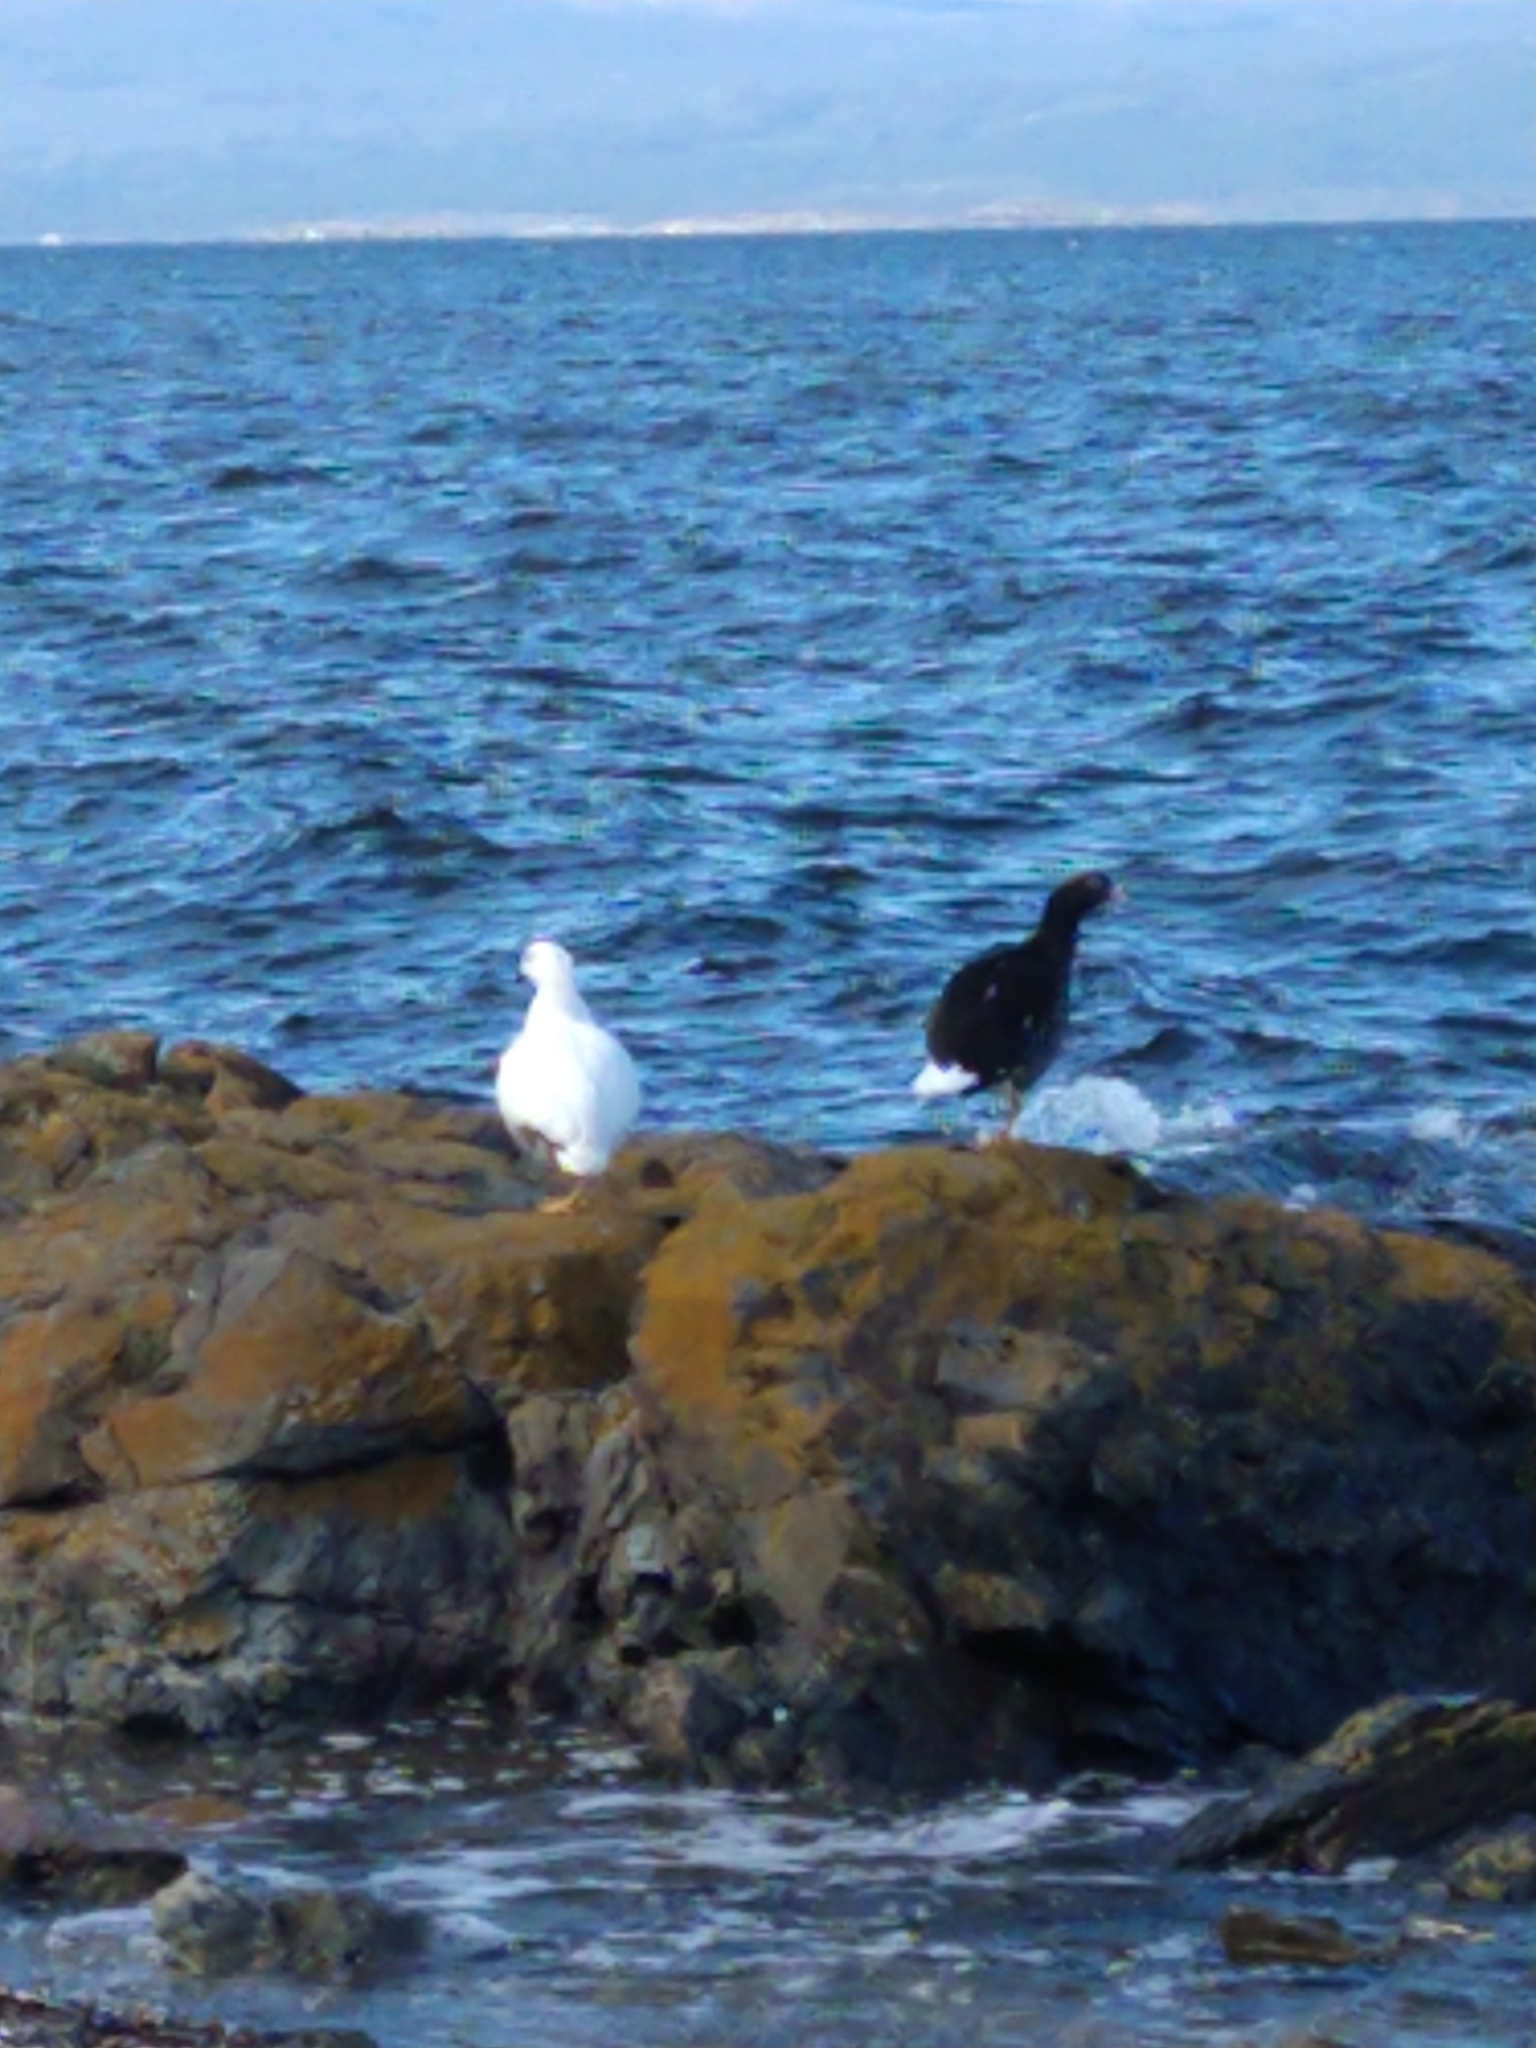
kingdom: Animalia
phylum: Chordata
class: Aves
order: Anseriformes
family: Anatidae
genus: Chloephaga
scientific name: Chloephaga hybrida
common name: Kelp goose
